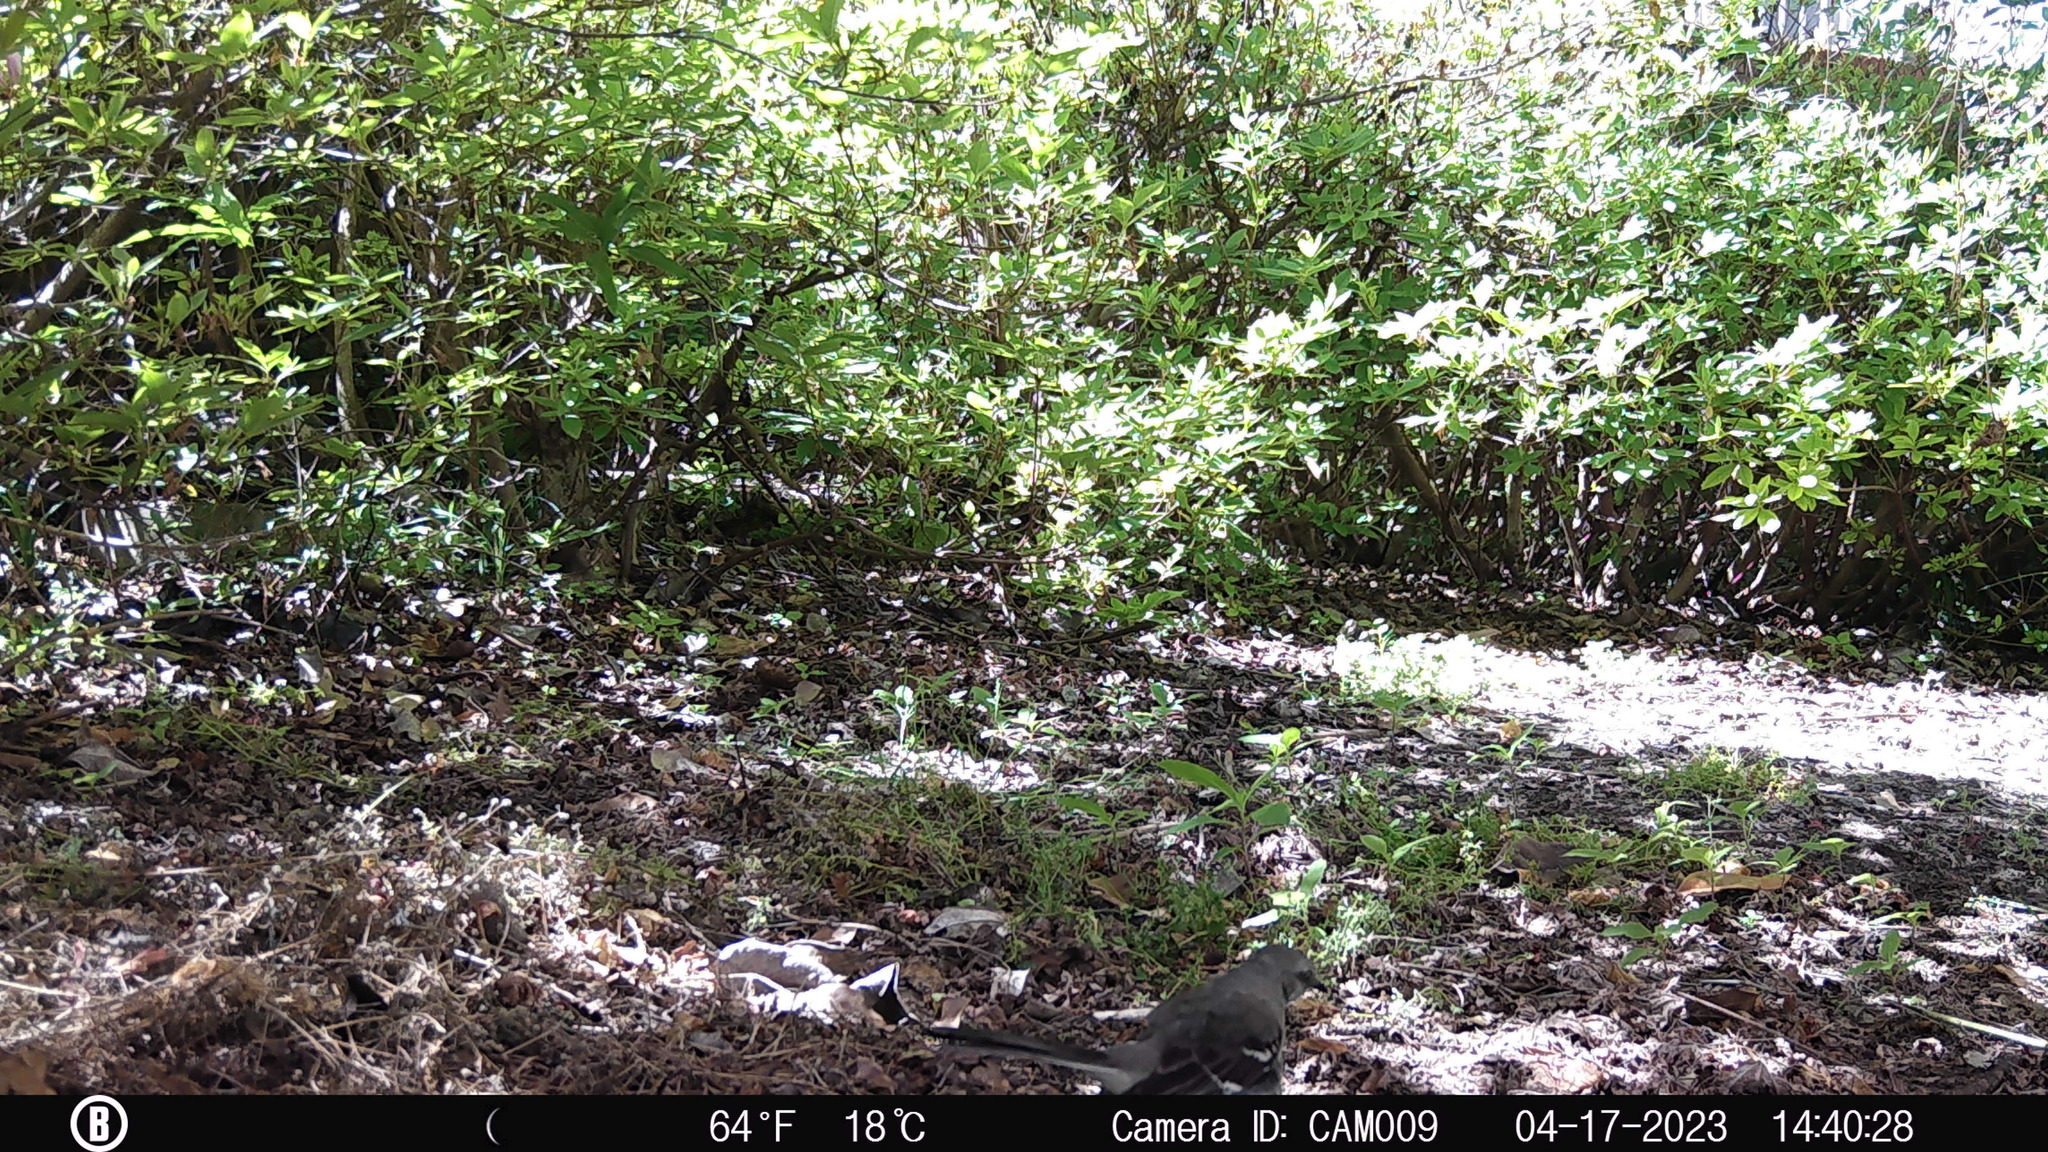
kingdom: Animalia
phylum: Chordata
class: Aves
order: Passeriformes
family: Mimidae
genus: Mimus
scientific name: Mimus polyglottos
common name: Northern mockingbird
